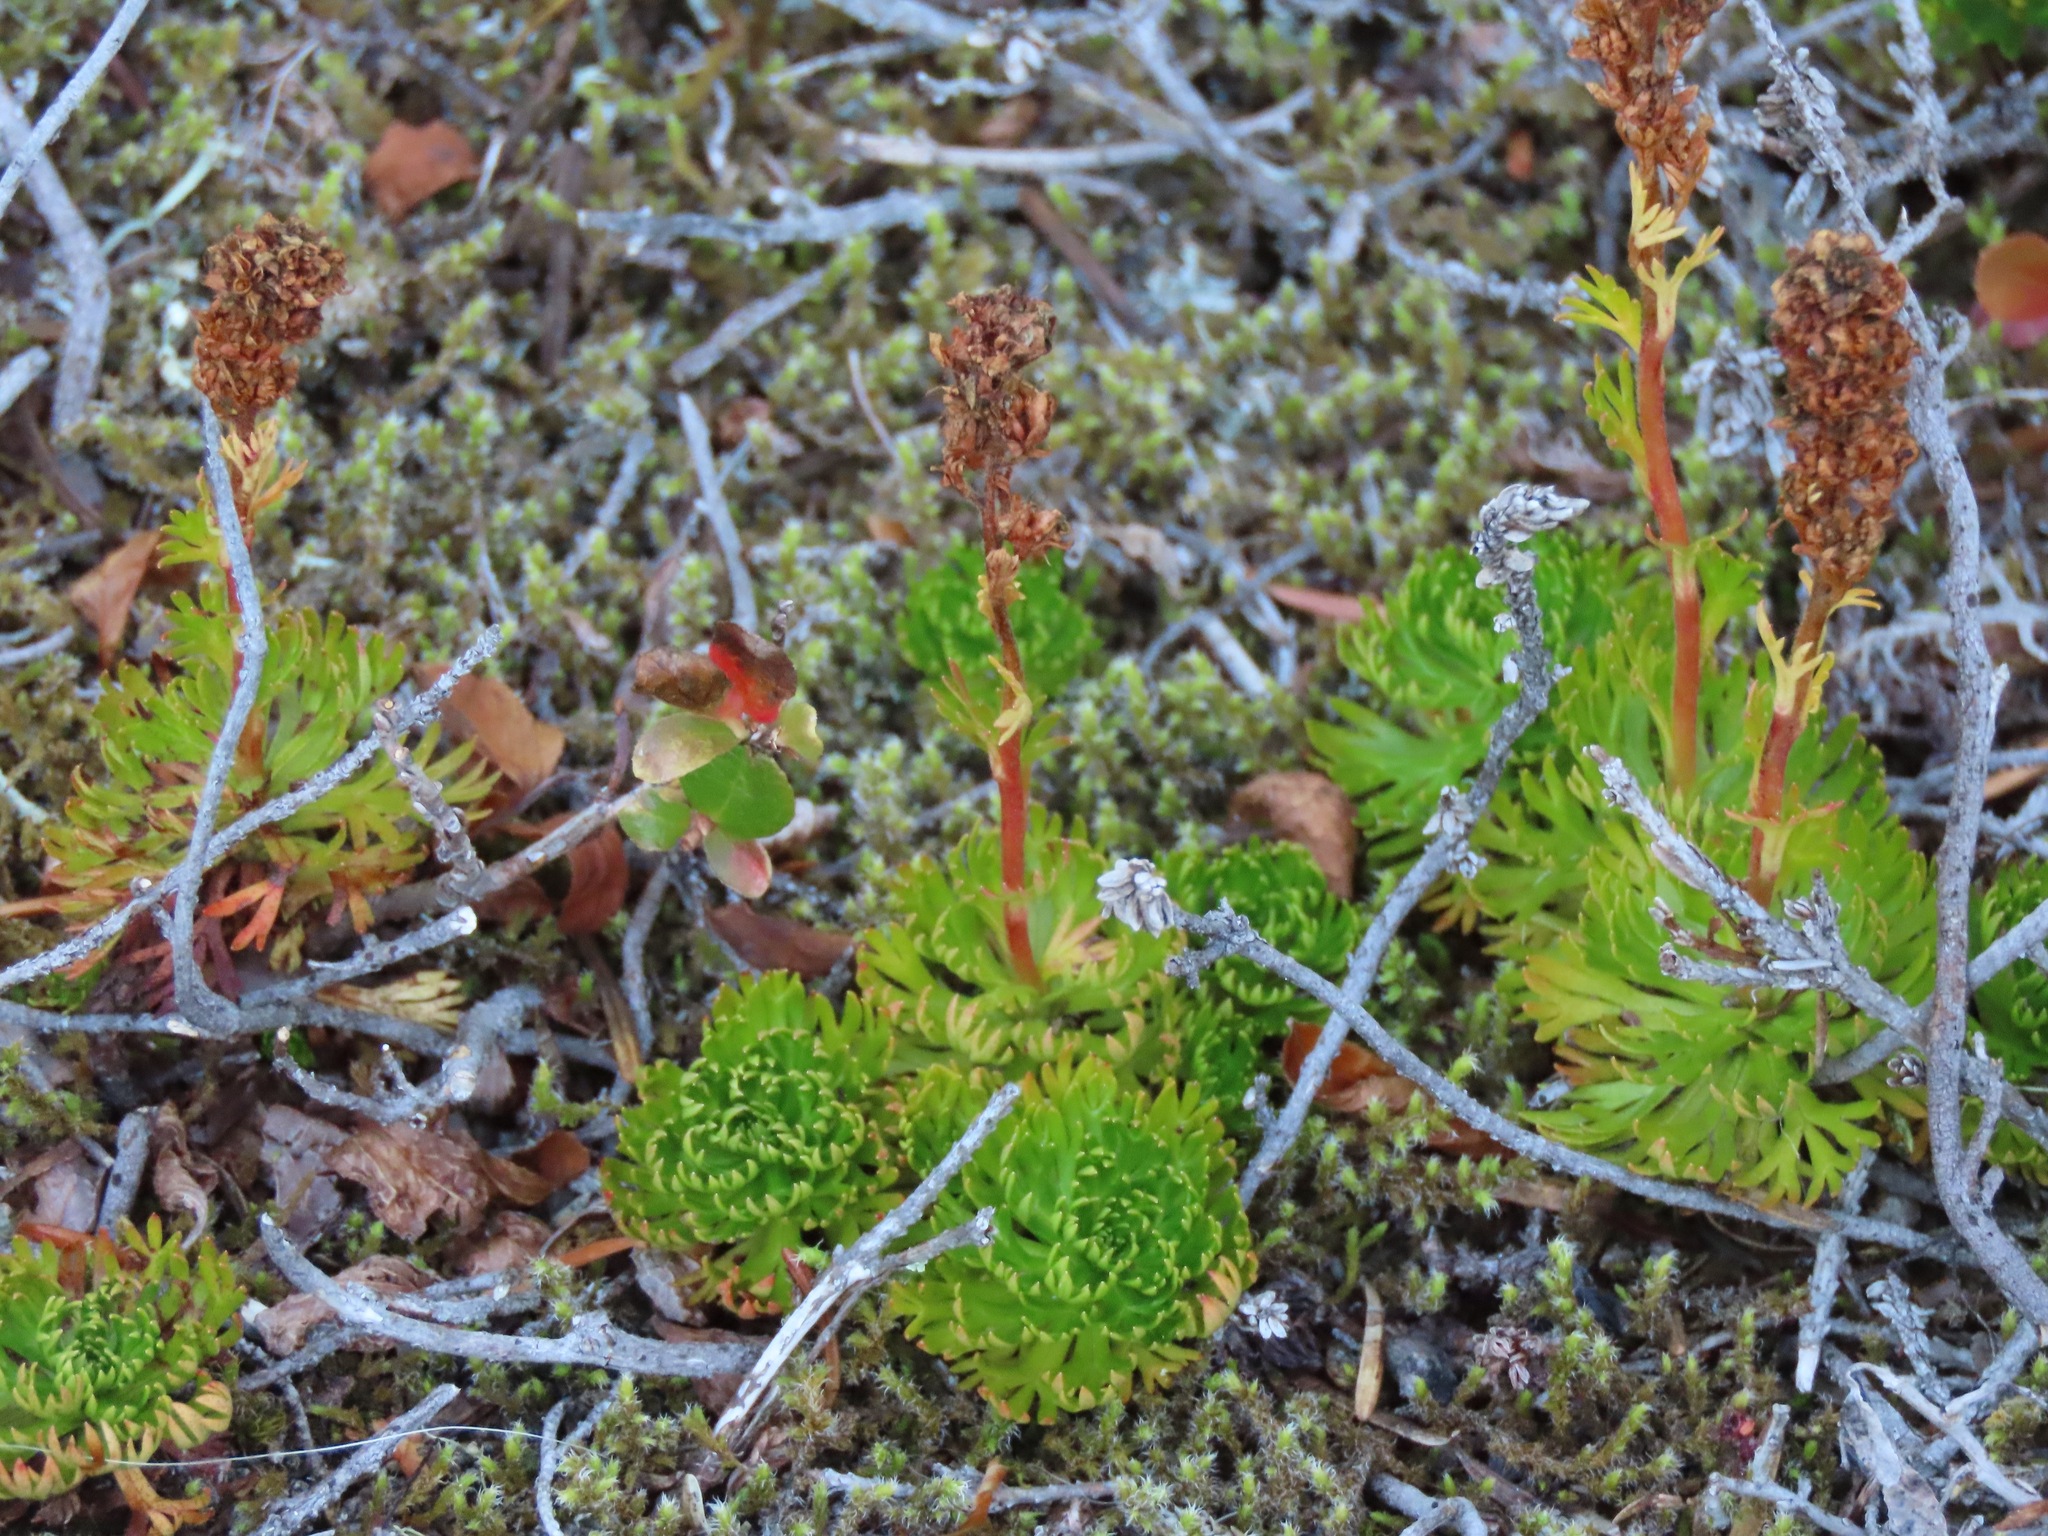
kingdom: Plantae
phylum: Tracheophyta
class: Magnoliopsida
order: Rosales
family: Rosaceae
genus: Luetkea
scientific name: Luetkea pectinata
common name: Partridgefoot
